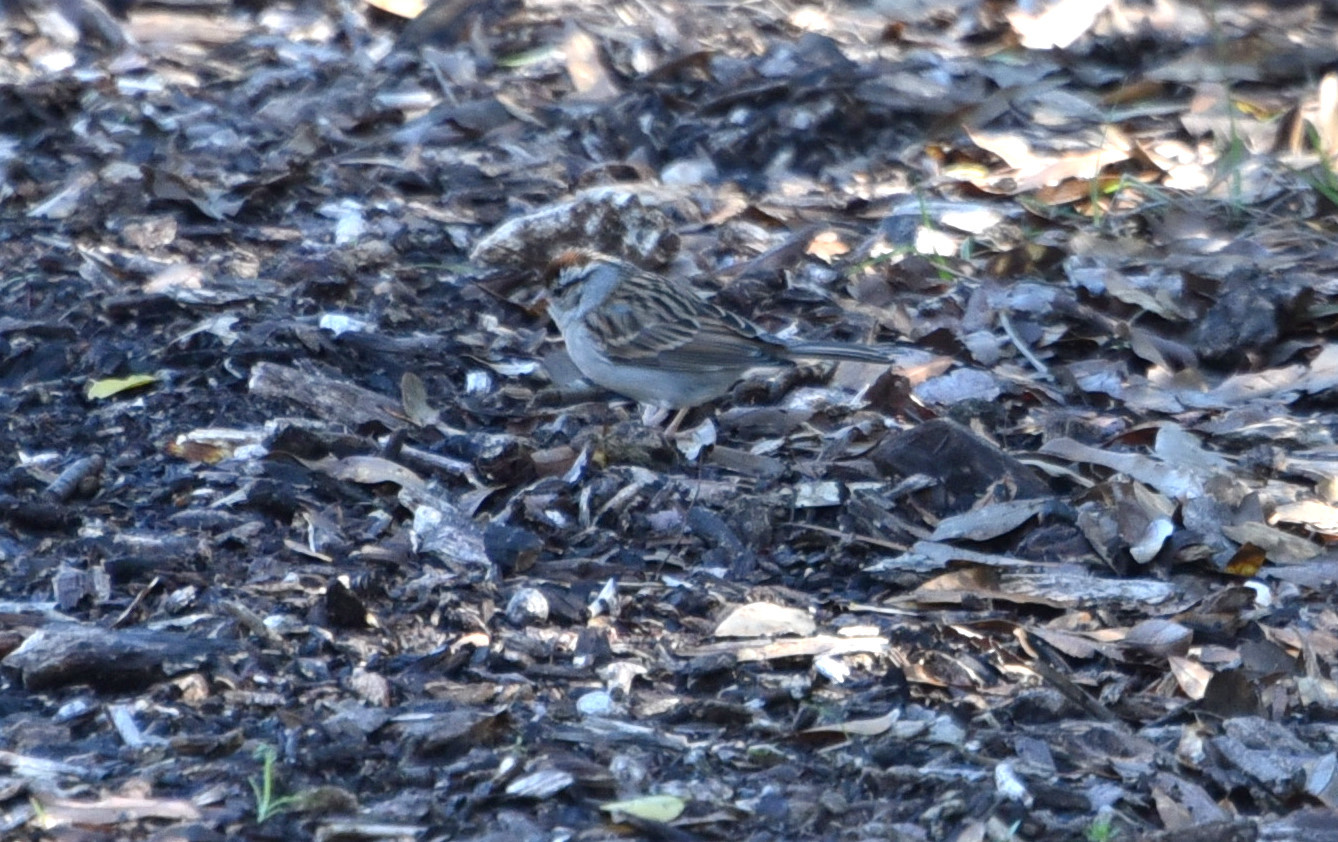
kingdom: Animalia
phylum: Chordata
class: Aves
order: Passeriformes
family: Passerellidae
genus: Spizella
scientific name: Spizella passerina
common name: Chipping sparrow
